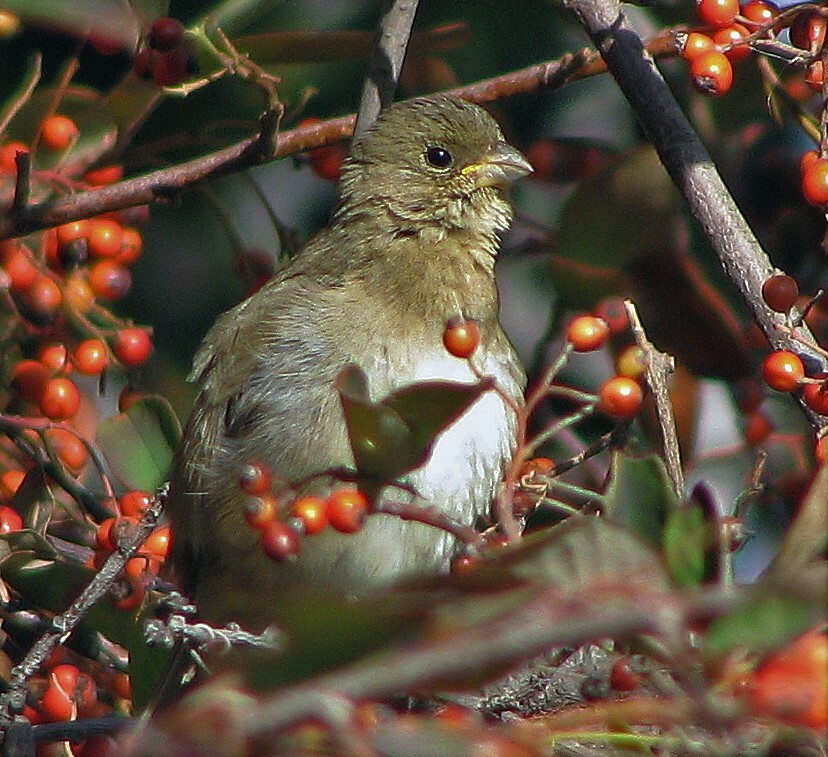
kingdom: Animalia
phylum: Chordata
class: Aves
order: Passeriformes
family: Thraupidae
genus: Sporophila
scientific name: Sporophila caerulescens
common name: Double-collared seedeater
